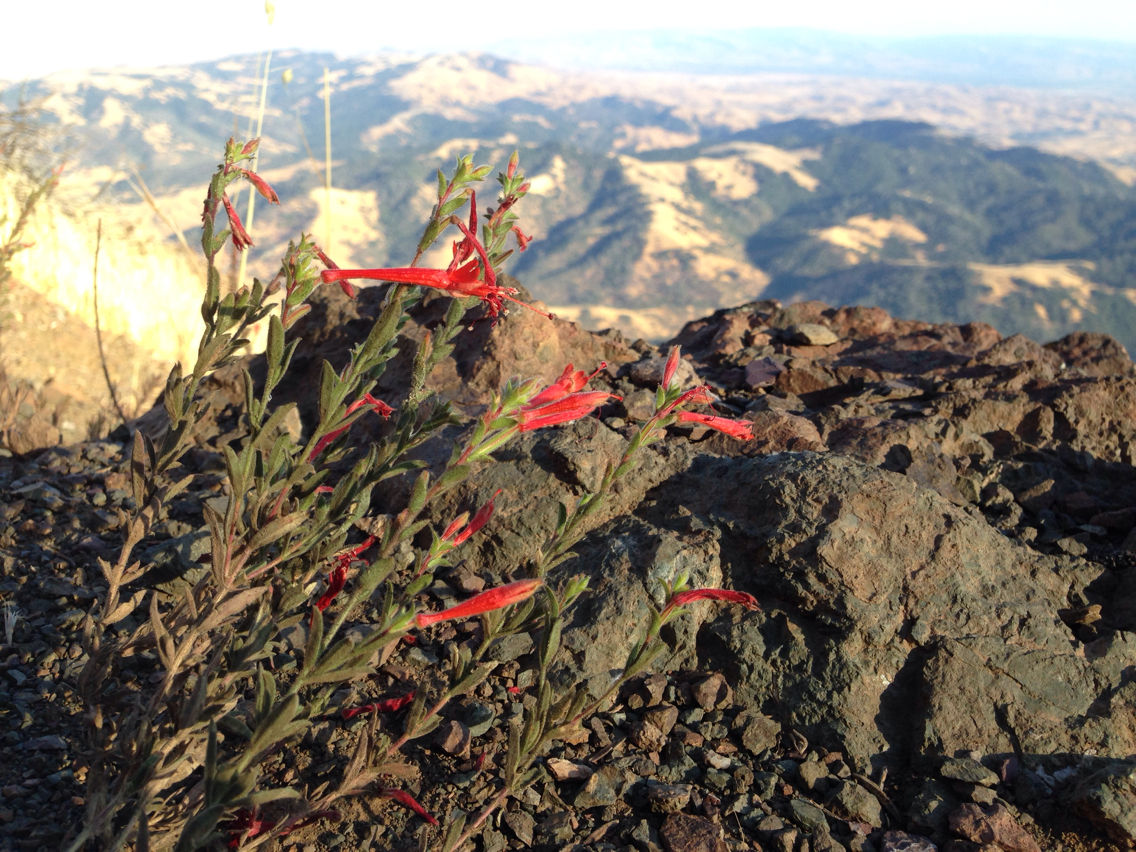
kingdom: Plantae
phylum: Tracheophyta
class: Magnoliopsida
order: Myrtales
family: Onagraceae
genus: Epilobium
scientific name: Epilobium canum
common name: California-fuchsia
